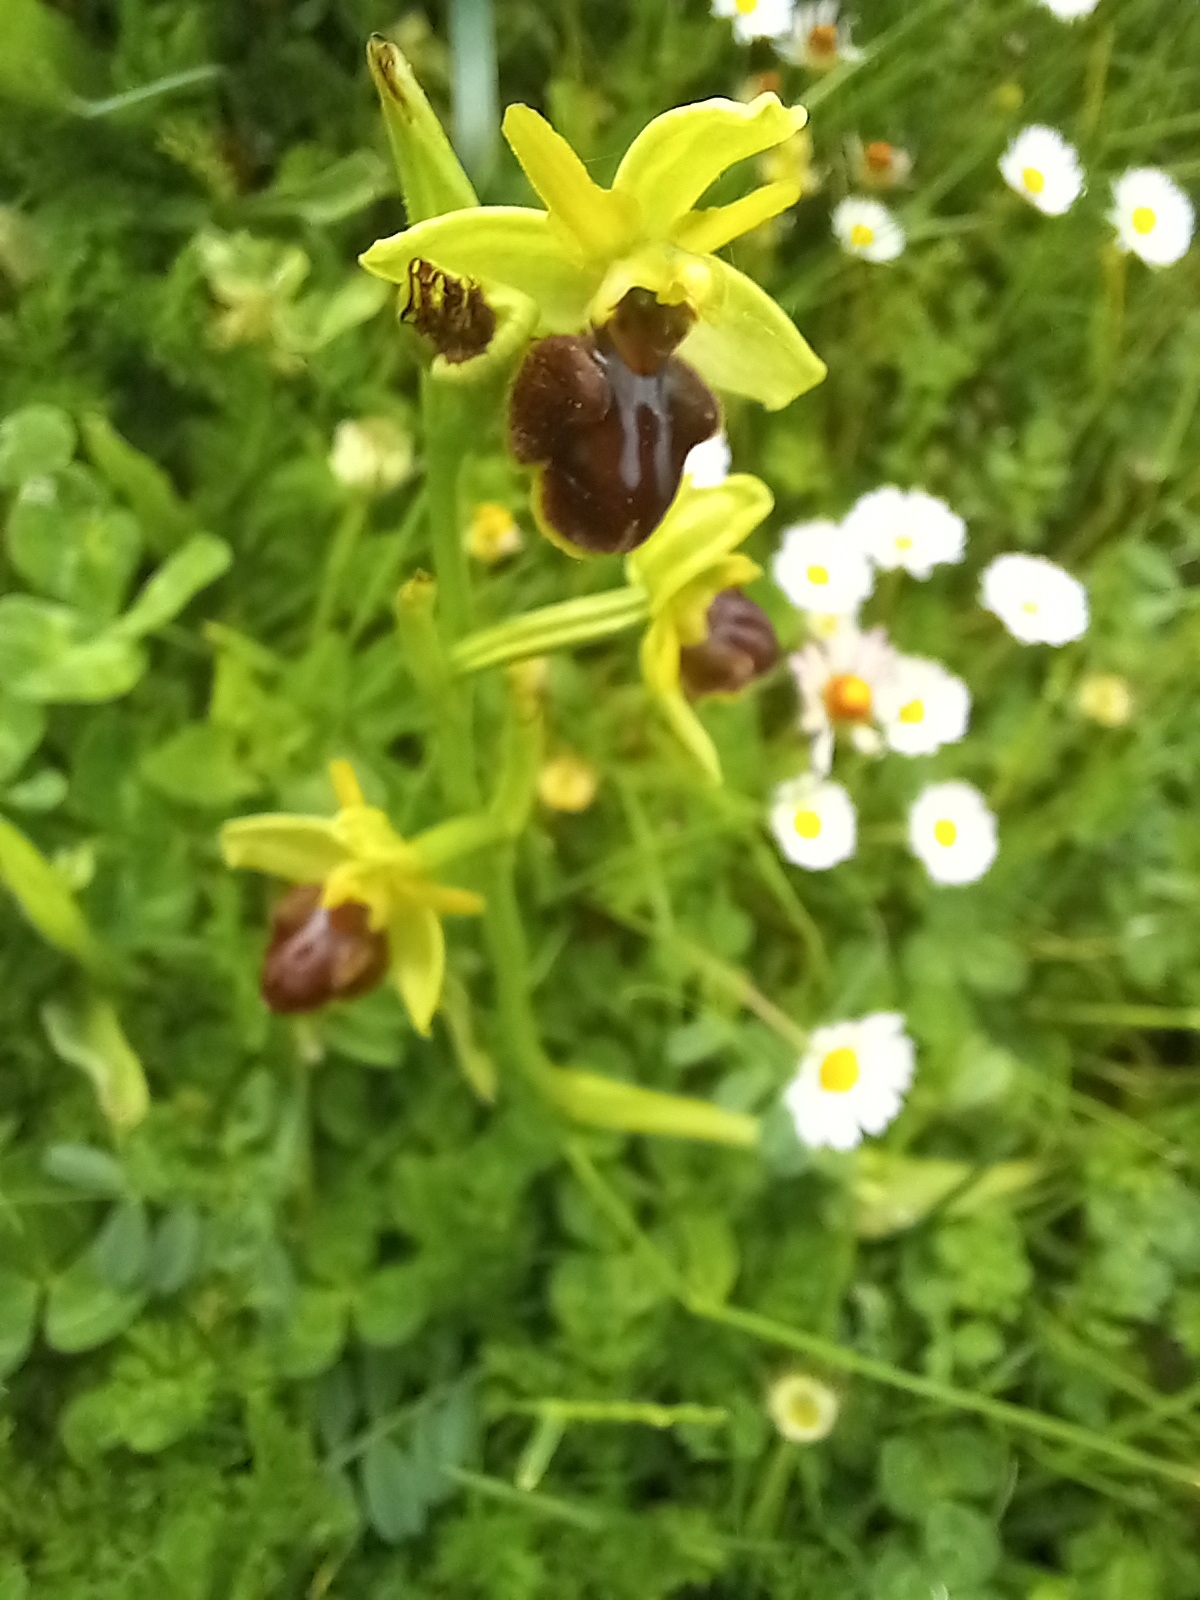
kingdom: Plantae
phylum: Tracheophyta
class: Liliopsida
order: Asparagales
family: Orchidaceae
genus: Ophrys
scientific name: Ophrys sphegodes
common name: Early spider-orchid
